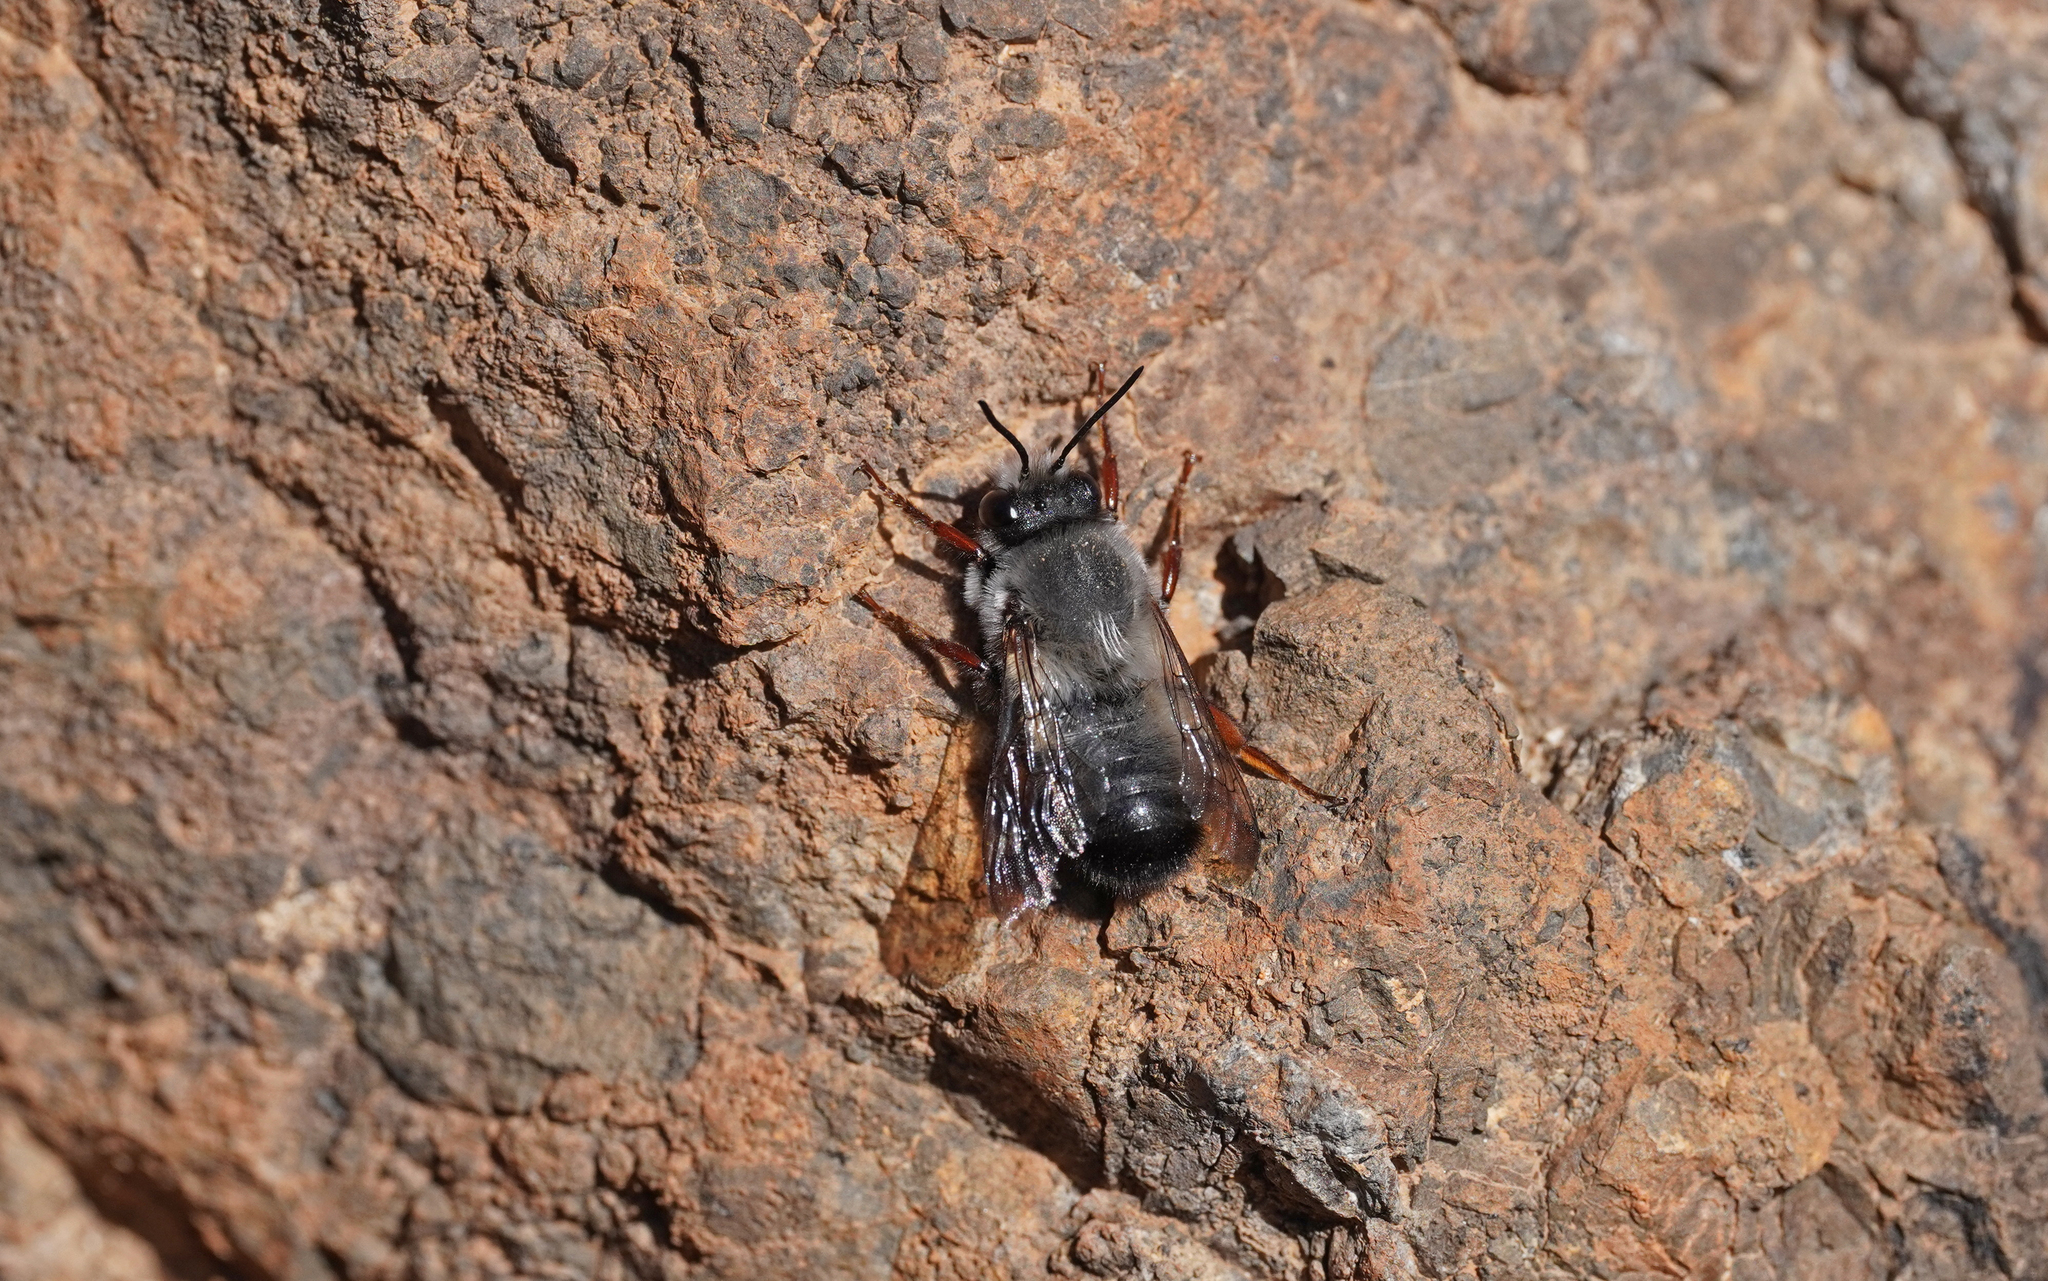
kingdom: Animalia
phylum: Arthropoda
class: Insecta
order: Hymenoptera
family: Megachilidae
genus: Megachile
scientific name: Megachile canescens
